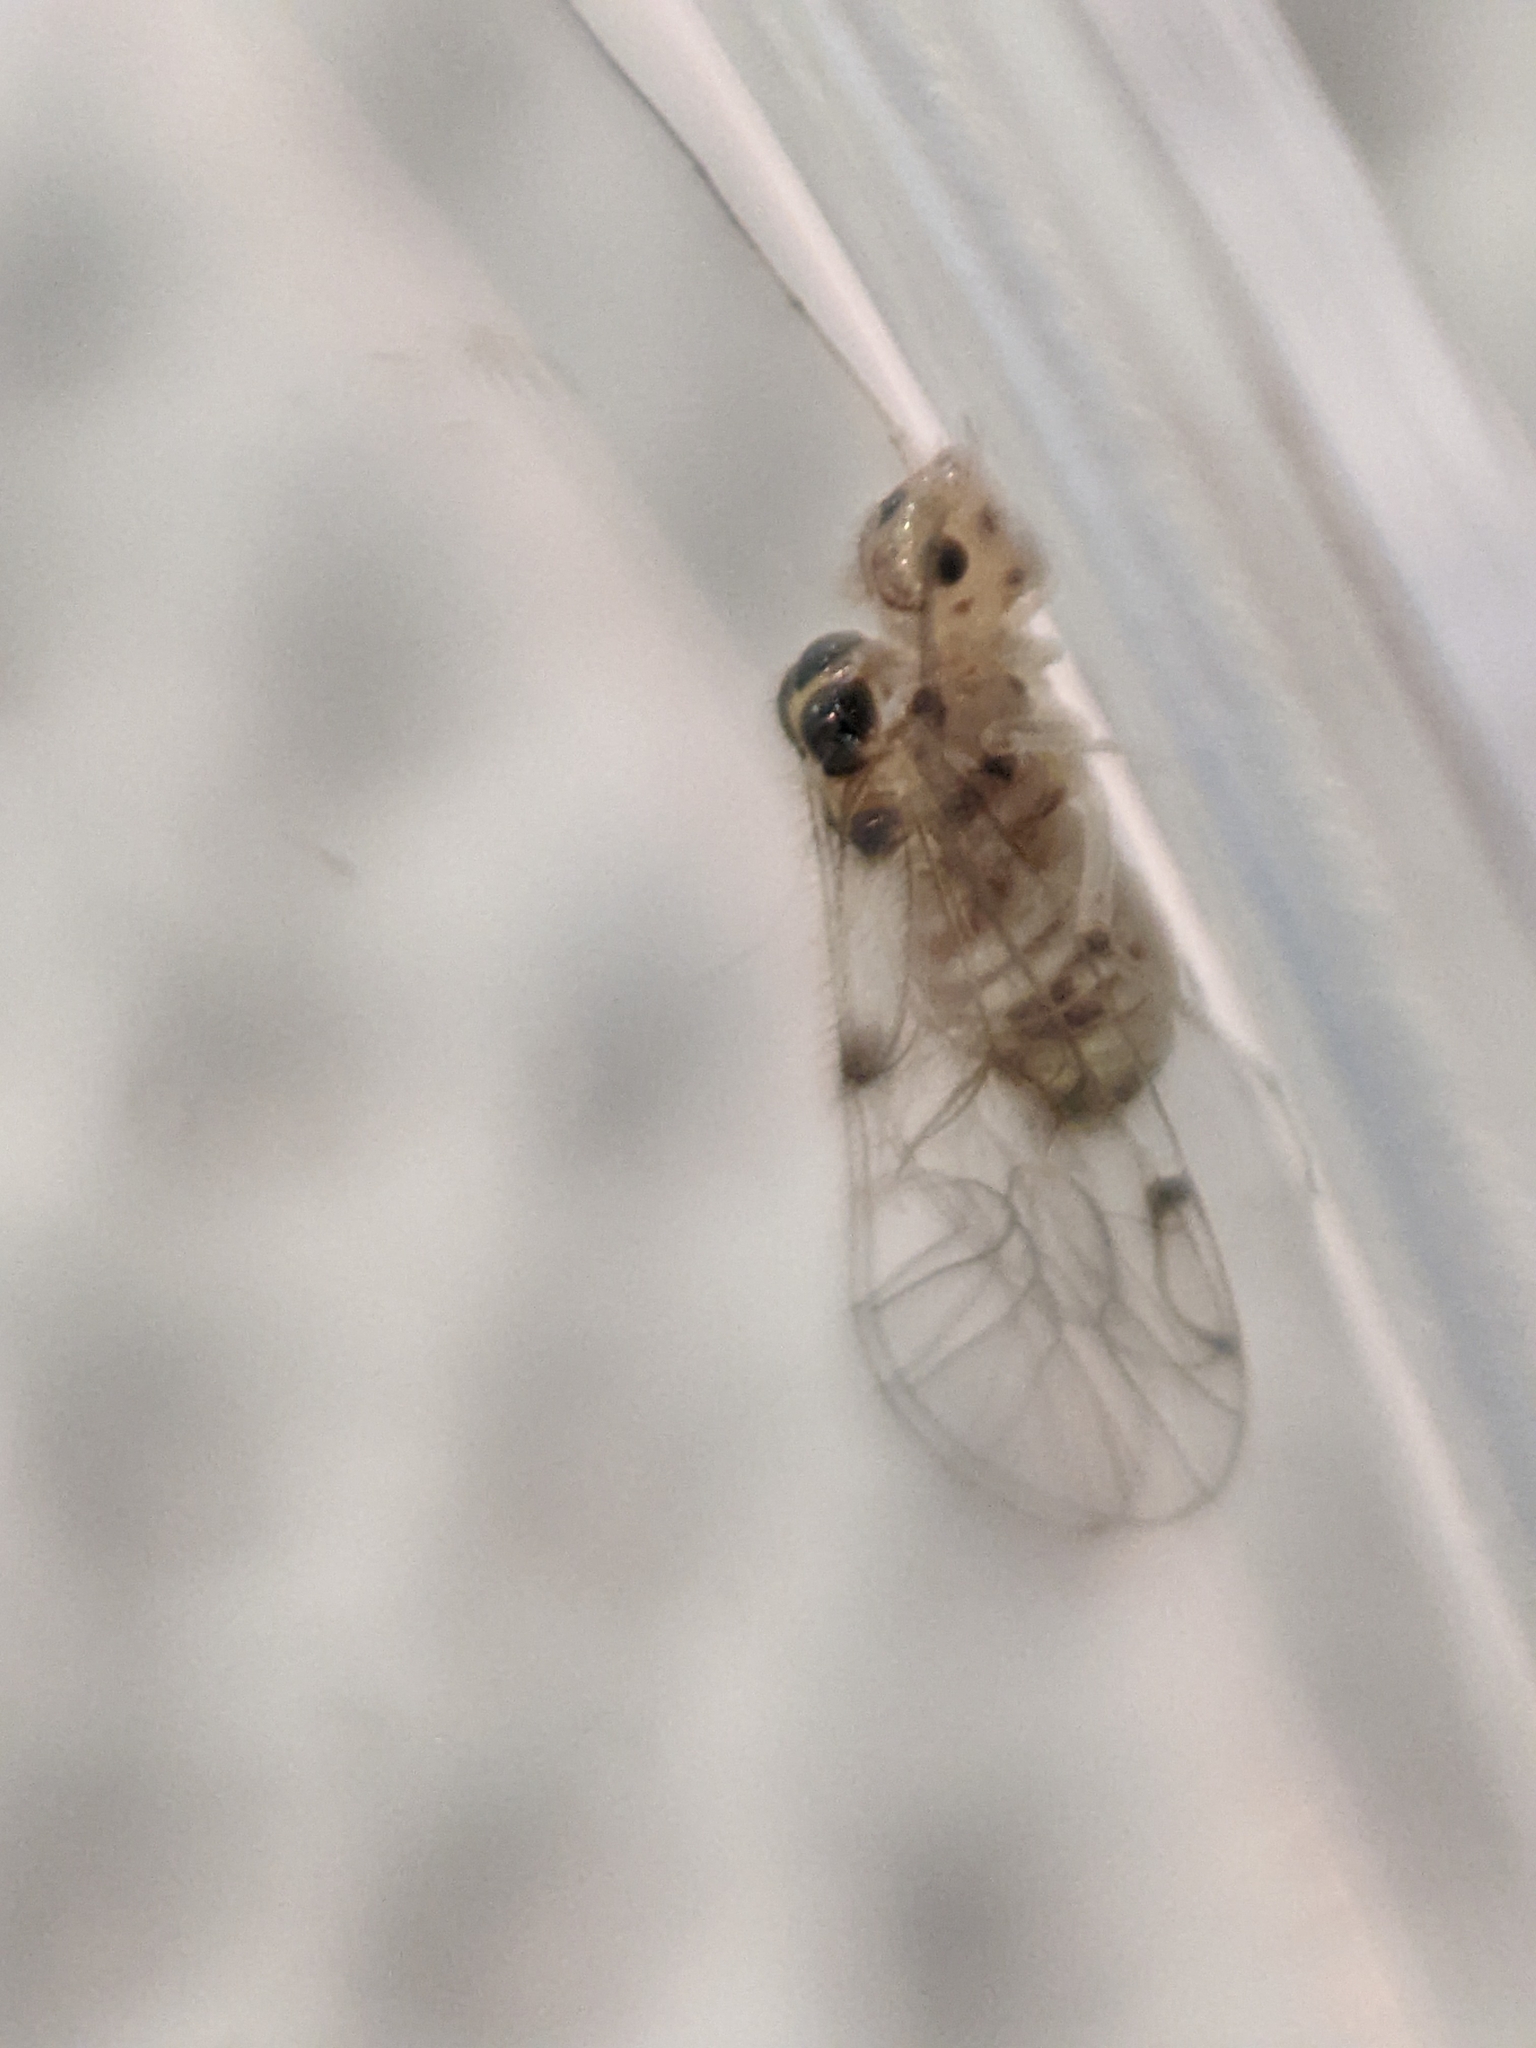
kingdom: Animalia
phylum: Arthropoda
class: Insecta
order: Psocodea
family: Dasydemellidae
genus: Teliapsocus
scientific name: Teliapsocus conterminus
